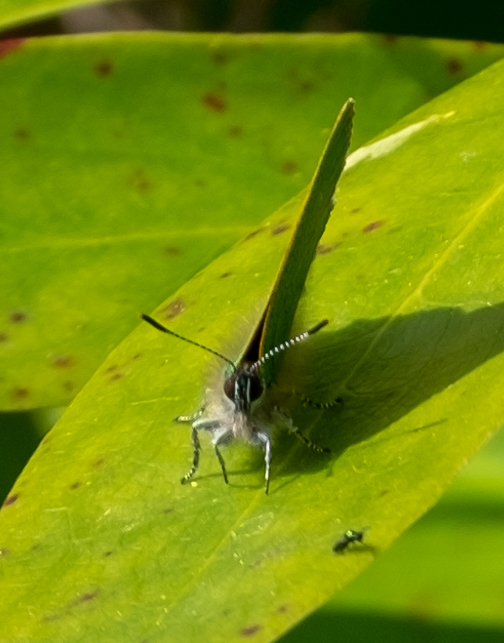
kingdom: Animalia
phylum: Arthropoda
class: Insecta
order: Lepidoptera
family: Lycaenidae
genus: Callophrys
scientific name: Callophrys rubi
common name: Green hairstreak
